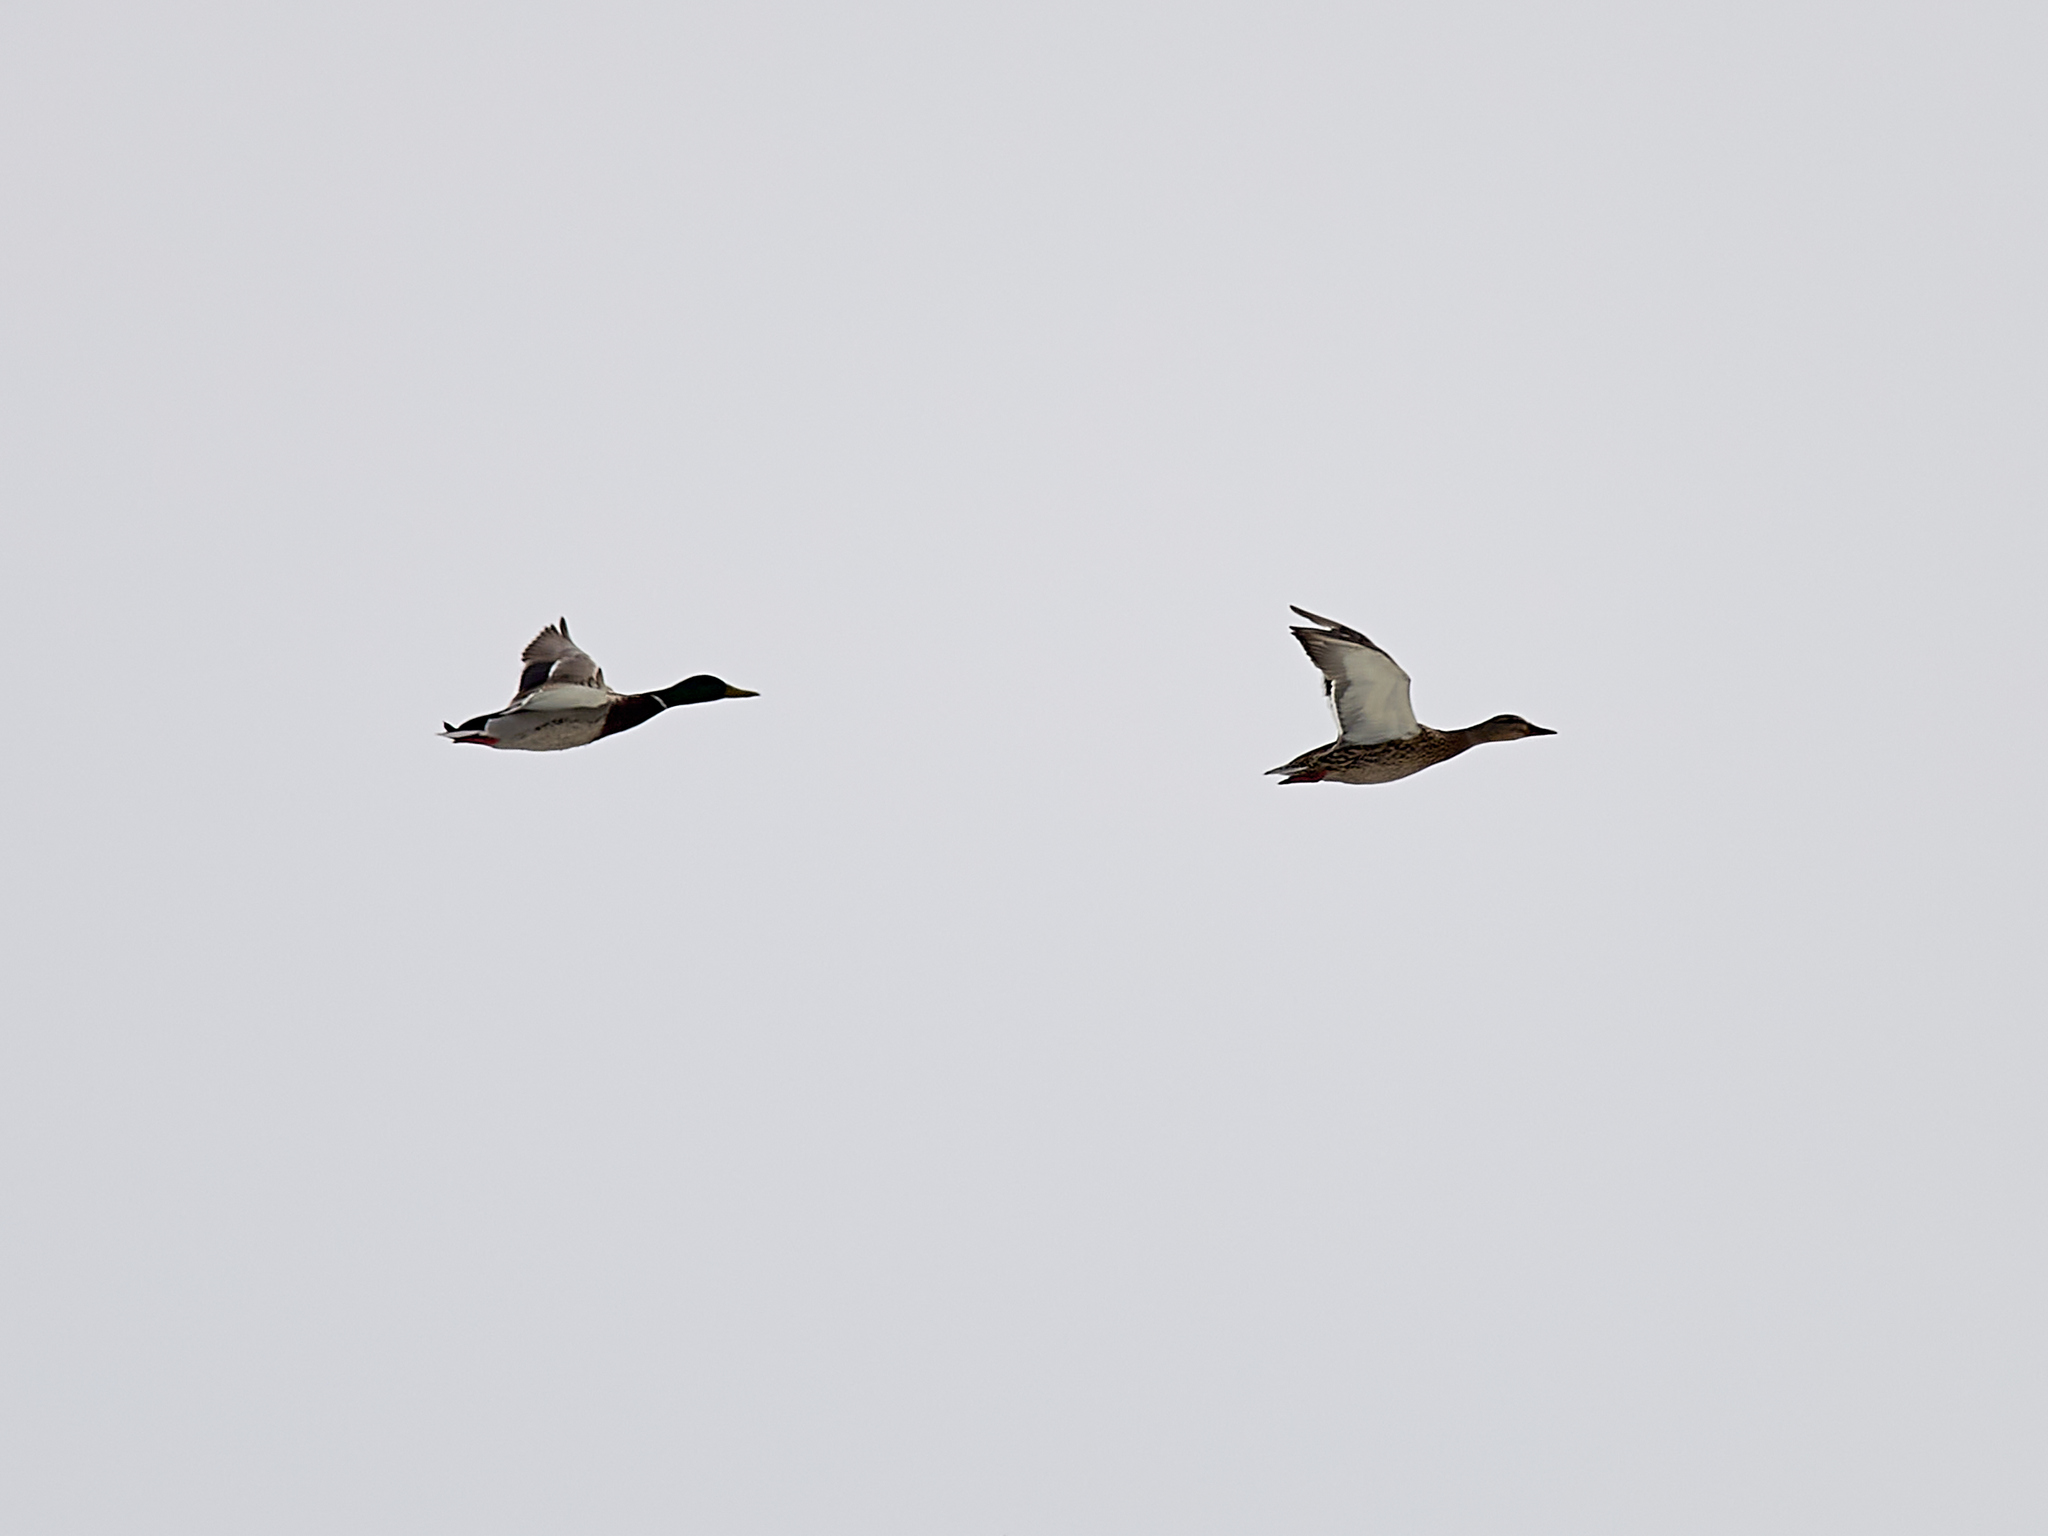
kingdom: Animalia
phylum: Chordata
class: Aves
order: Anseriformes
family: Anatidae
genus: Anas
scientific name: Anas platyrhynchos
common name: Mallard
